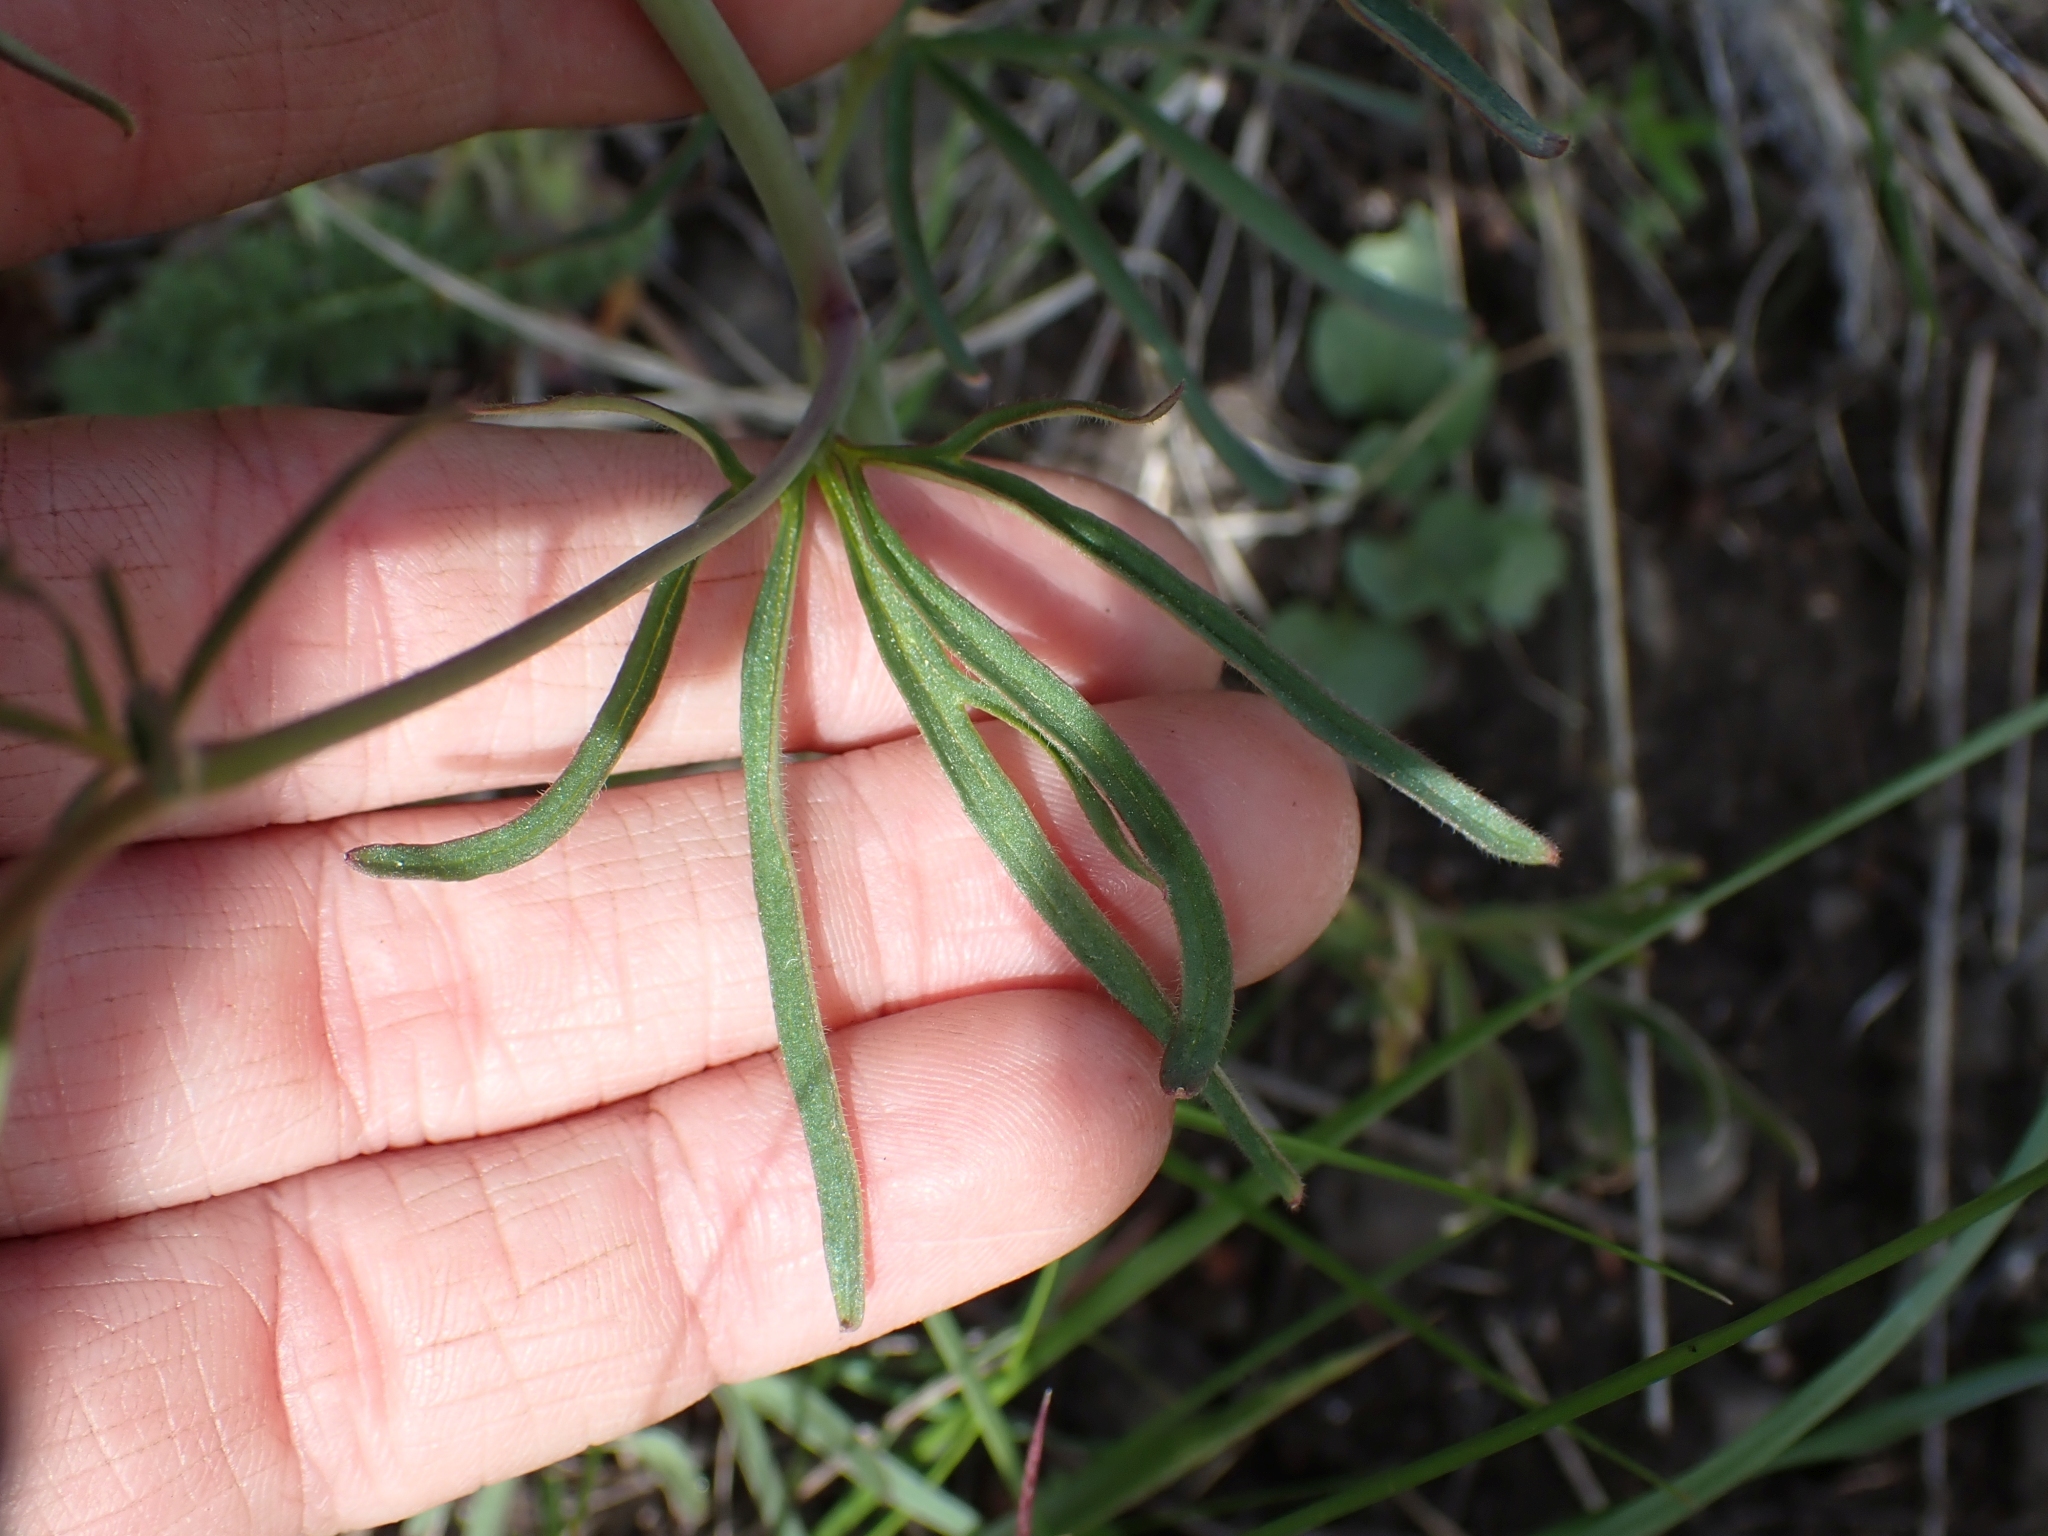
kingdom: Plantae
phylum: Tracheophyta
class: Magnoliopsida
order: Ranunculales
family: Ranunculaceae
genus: Delphinium
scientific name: Delphinium nuttallianum
